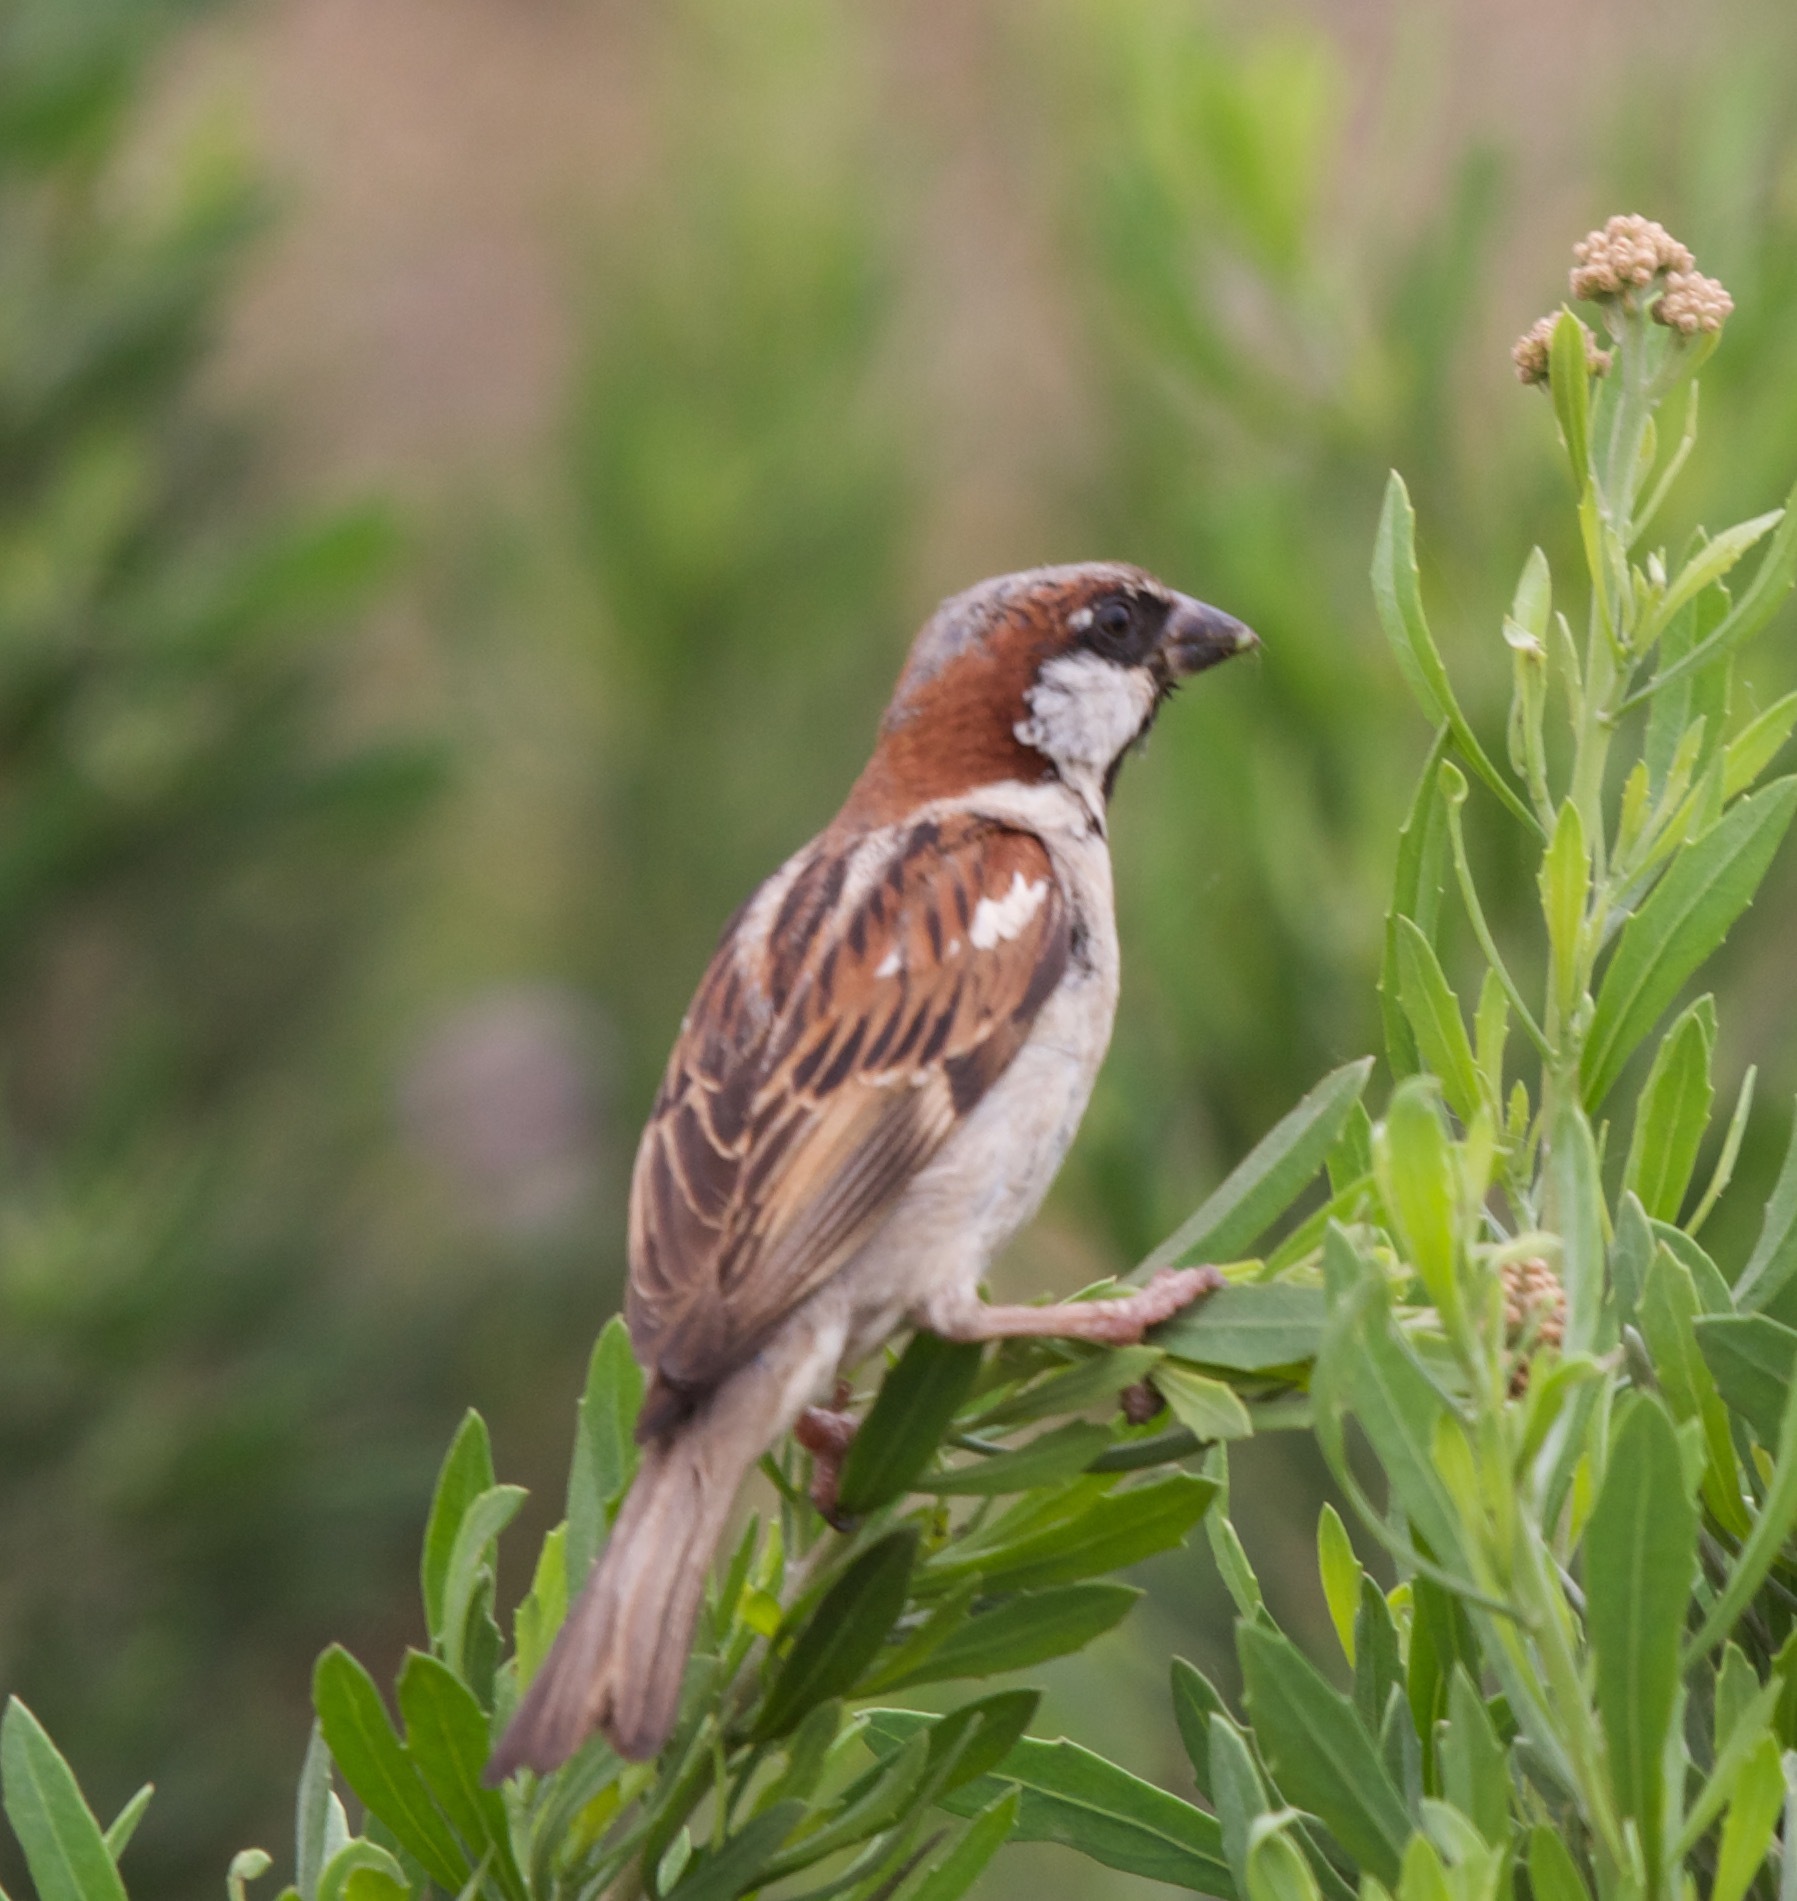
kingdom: Animalia
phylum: Chordata
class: Aves
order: Passeriformes
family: Passeridae
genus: Passer
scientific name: Passer domesticus
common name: House sparrow
